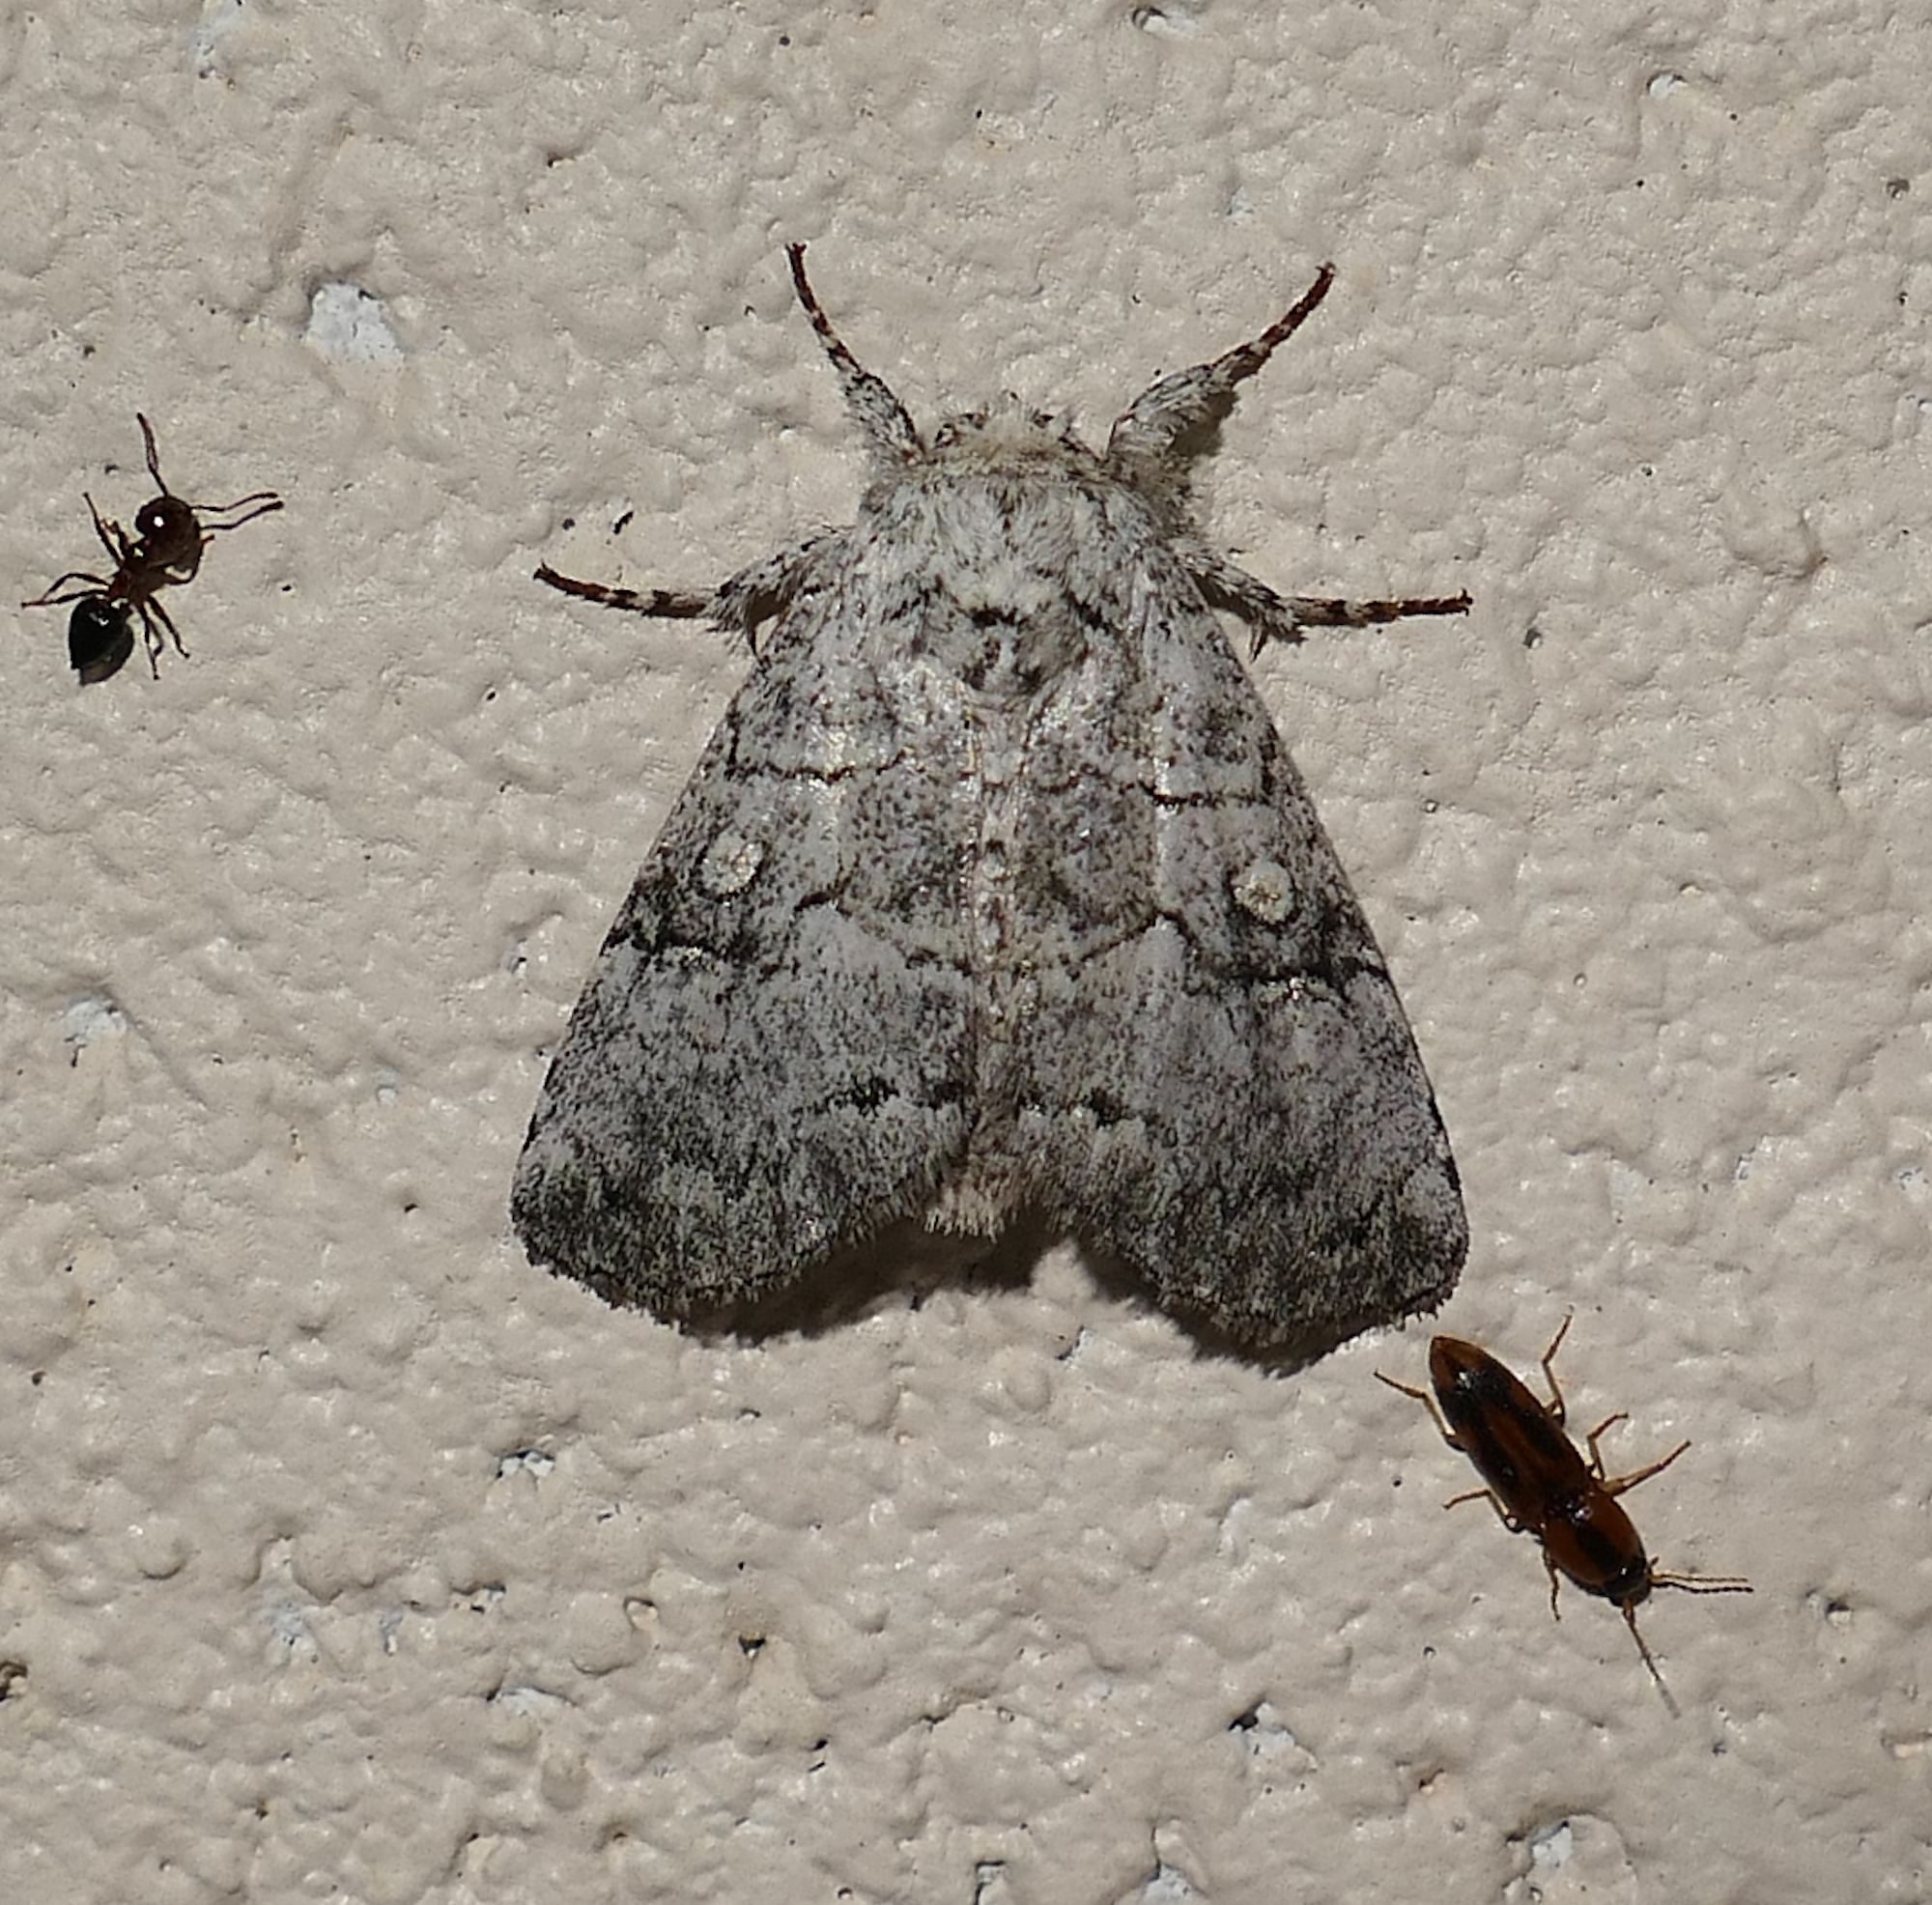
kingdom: Animalia
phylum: Arthropoda
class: Insecta
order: Lepidoptera
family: Noctuidae
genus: Charadra
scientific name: Charadra dispulsa
